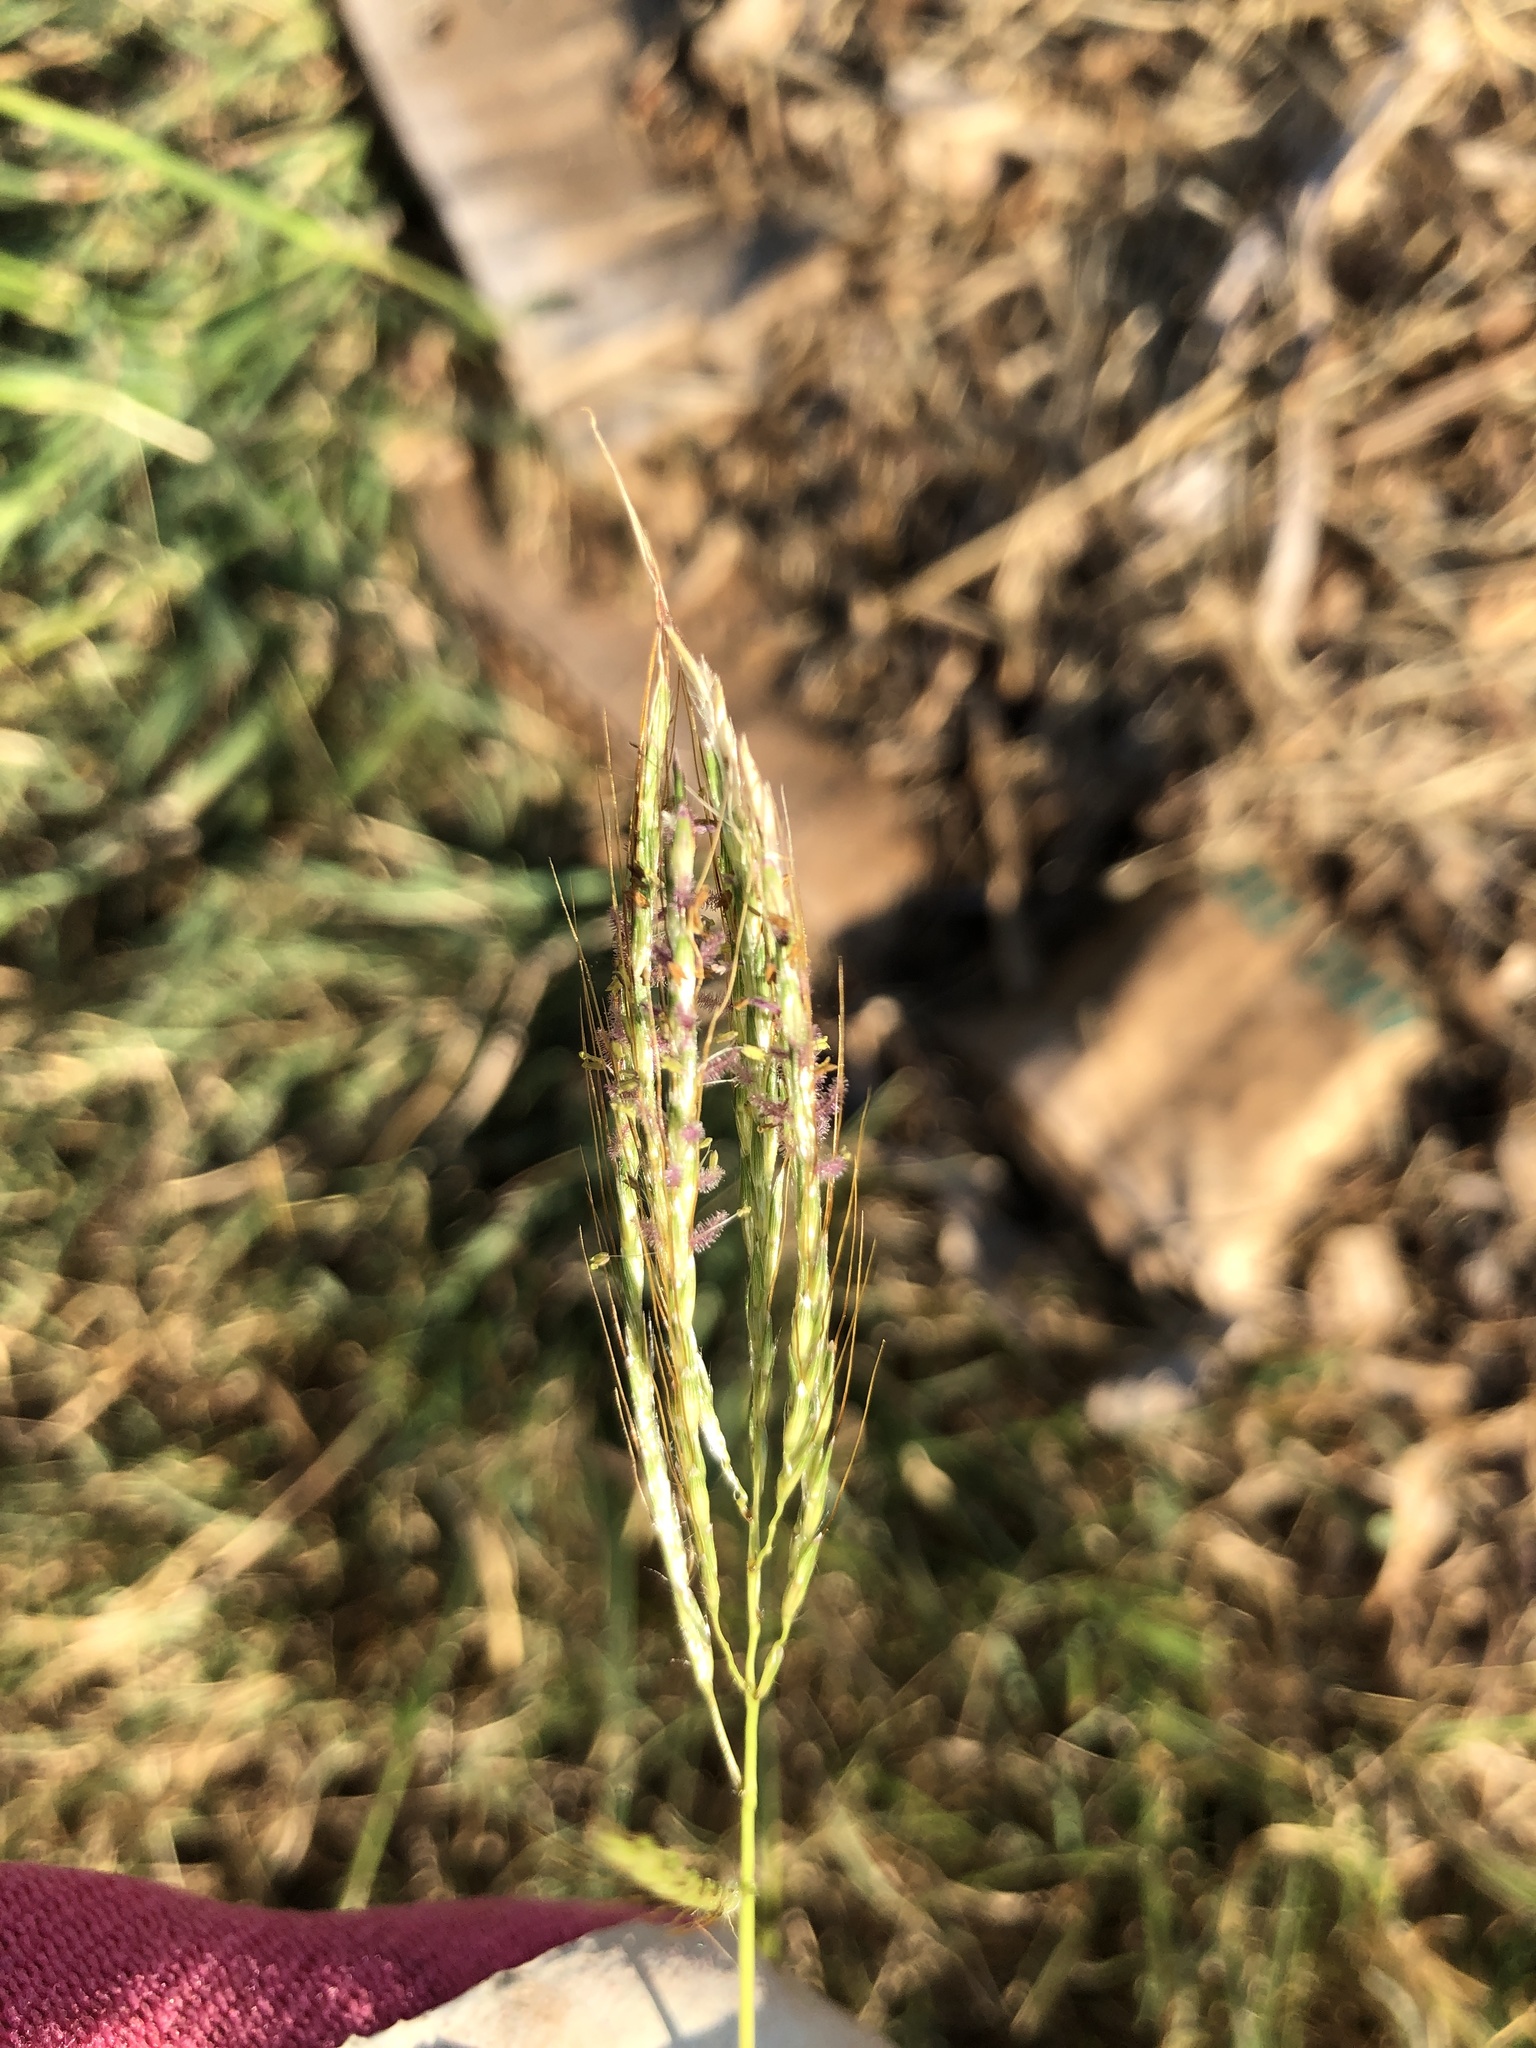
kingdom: Plantae
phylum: Tracheophyta
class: Liliopsida
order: Poales
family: Poaceae
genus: Bothriochloa
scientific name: Bothriochloa ischaemum
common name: Yellow bluestem
